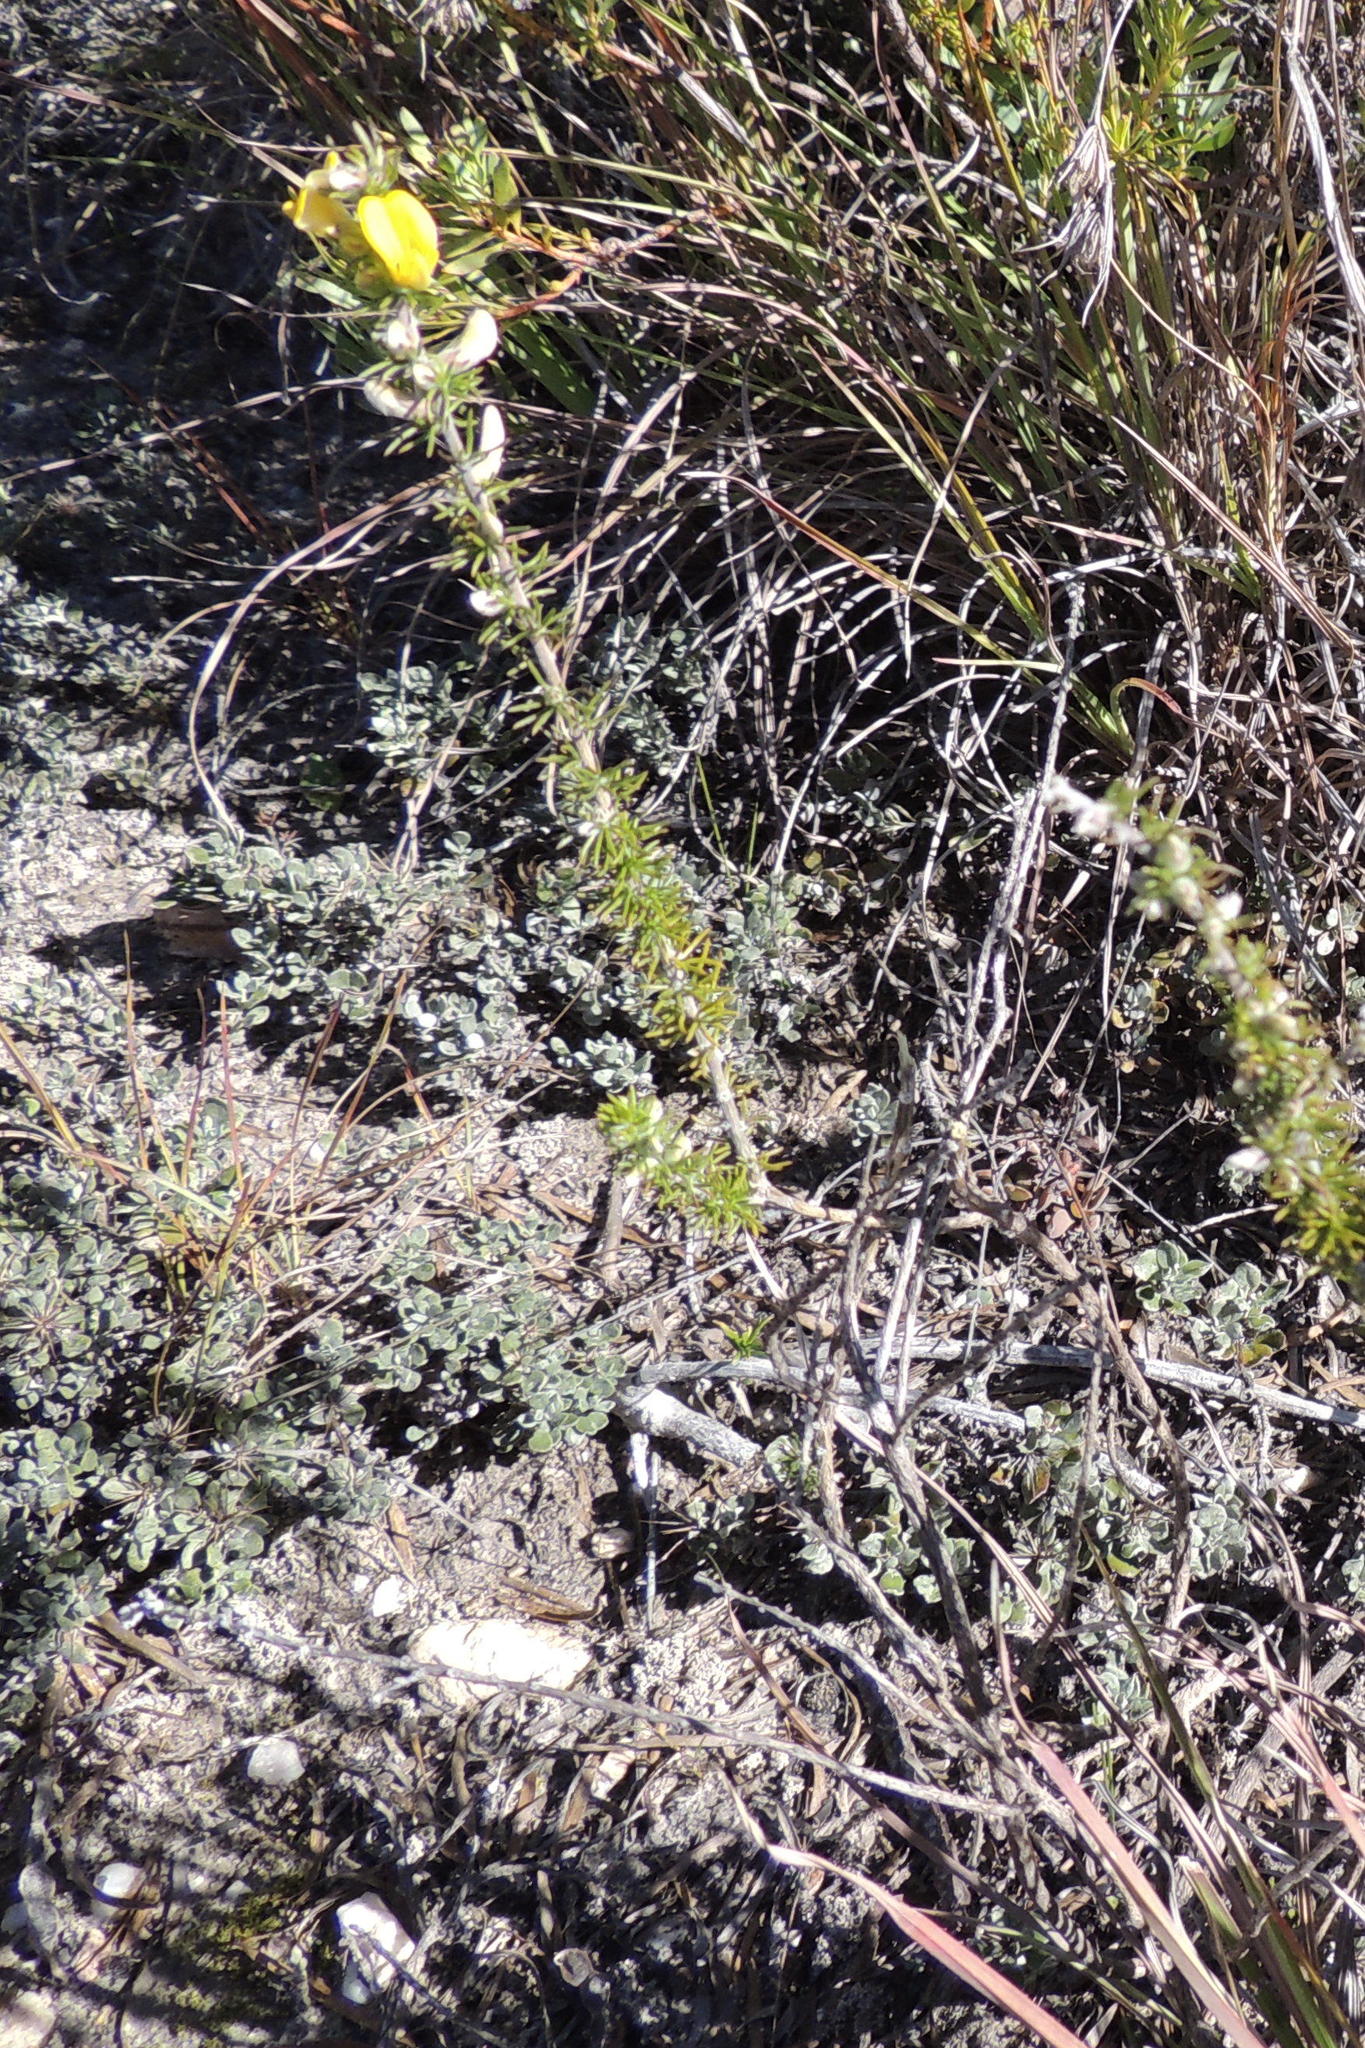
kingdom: Plantae
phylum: Tracheophyta
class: Magnoliopsida
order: Fabales
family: Fabaceae
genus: Aspalathus
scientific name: Aspalathus laricifolia
